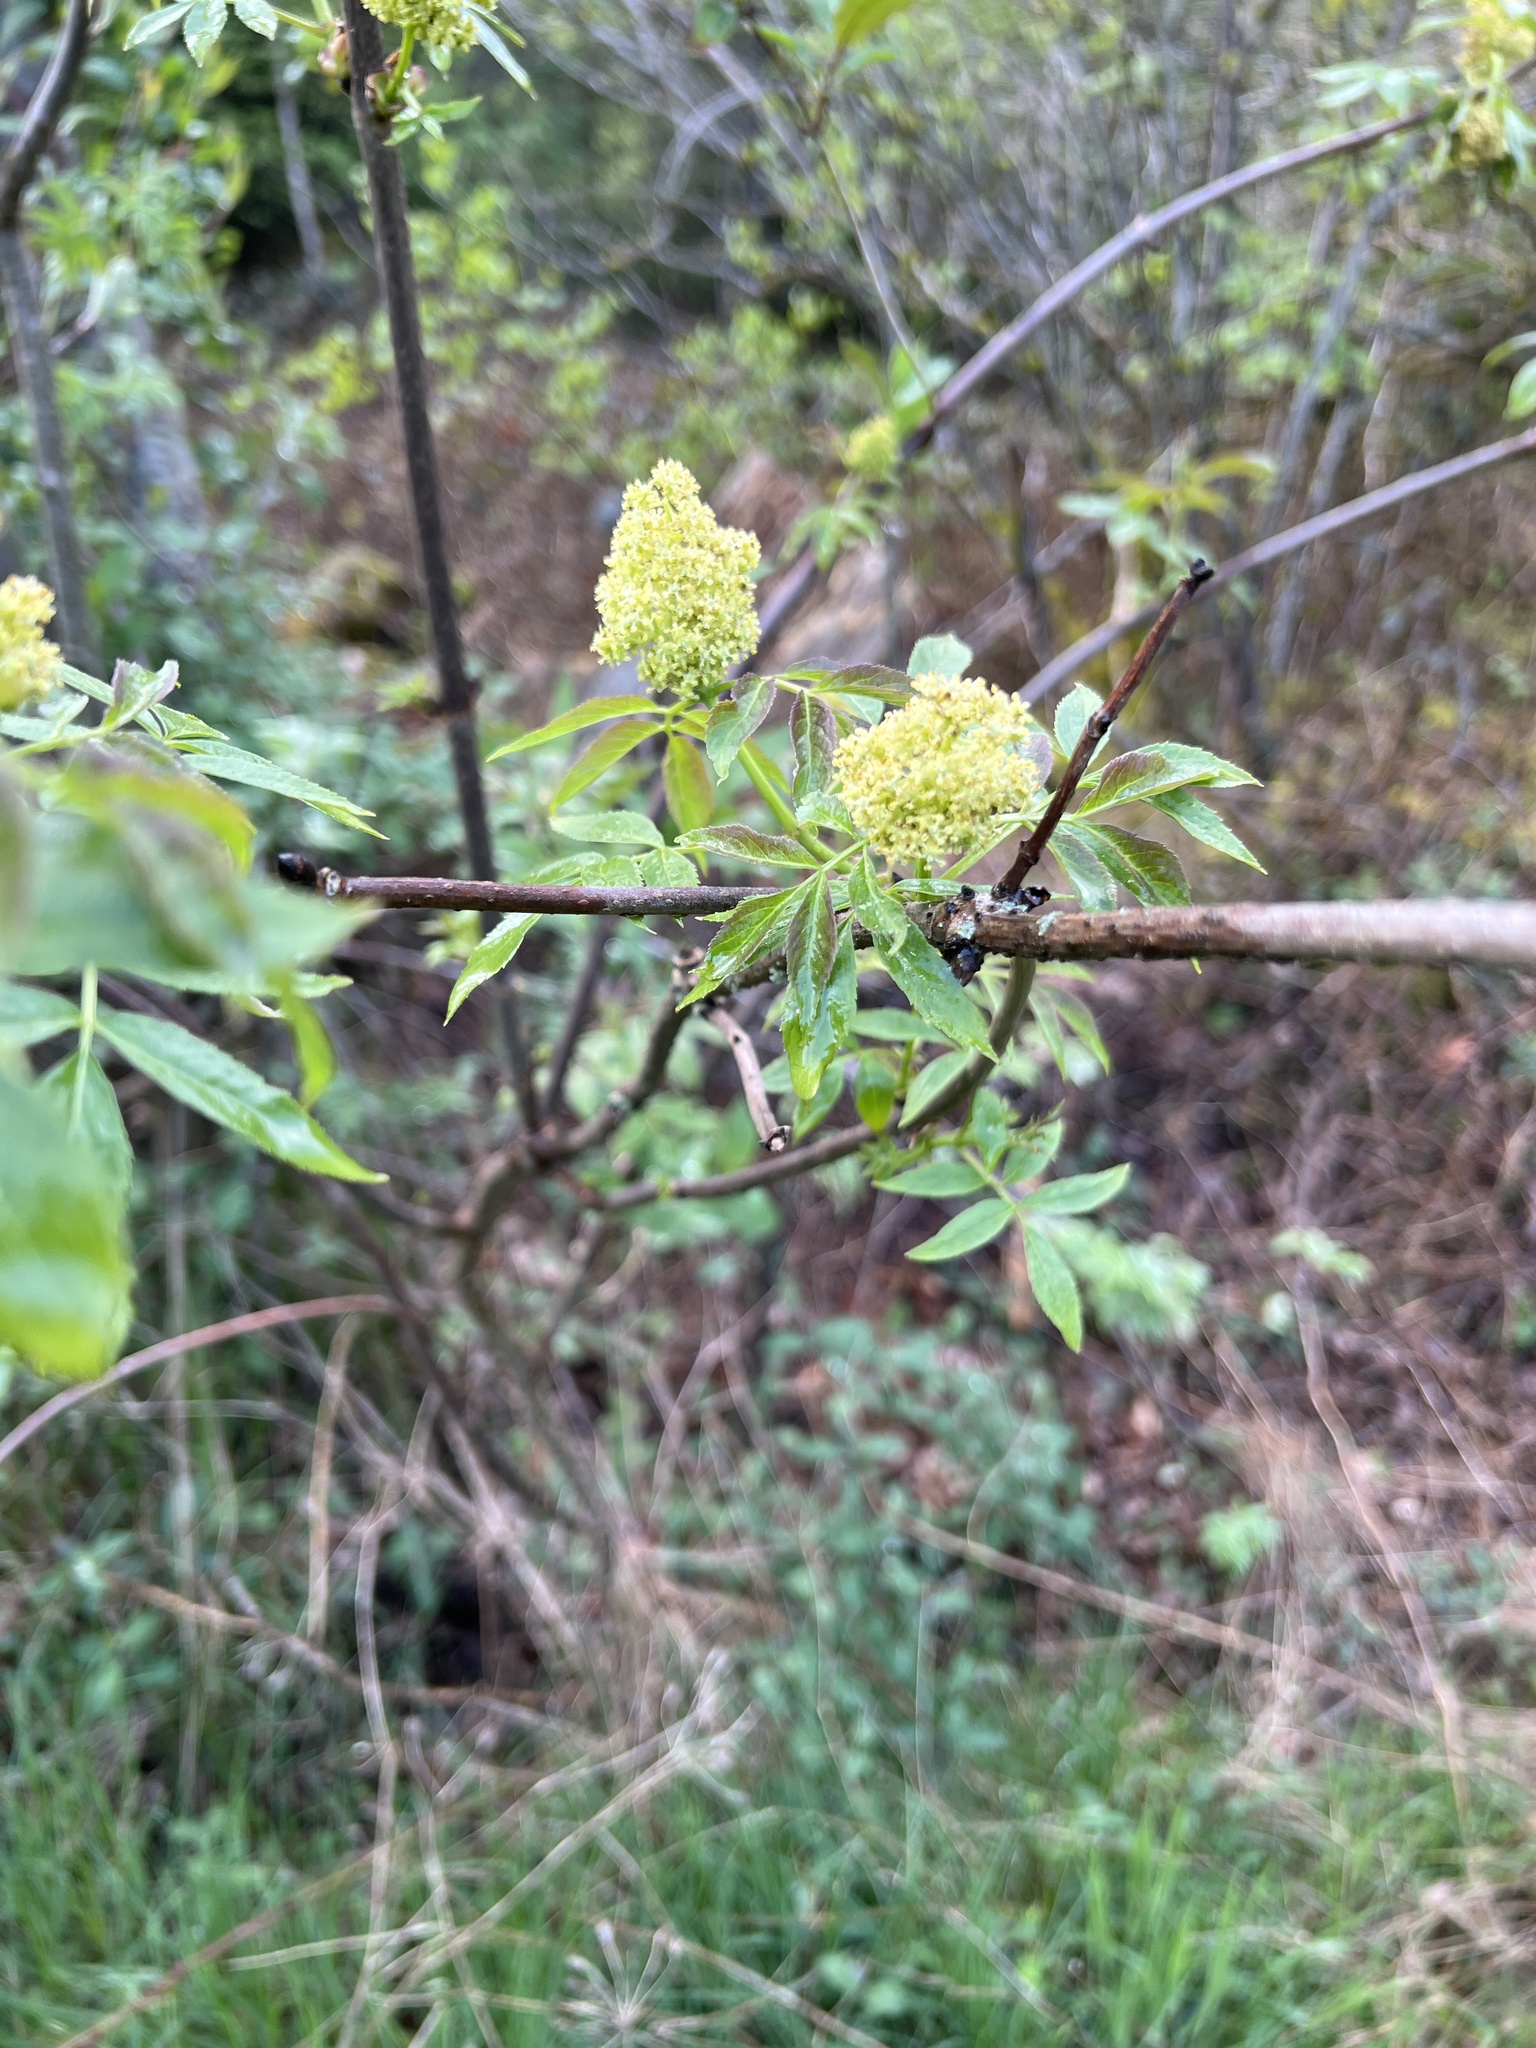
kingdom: Plantae
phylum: Tracheophyta
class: Magnoliopsida
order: Dipsacales
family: Viburnaceae
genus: Sambucus
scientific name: Sambucus racemosa
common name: Red-berried elder
